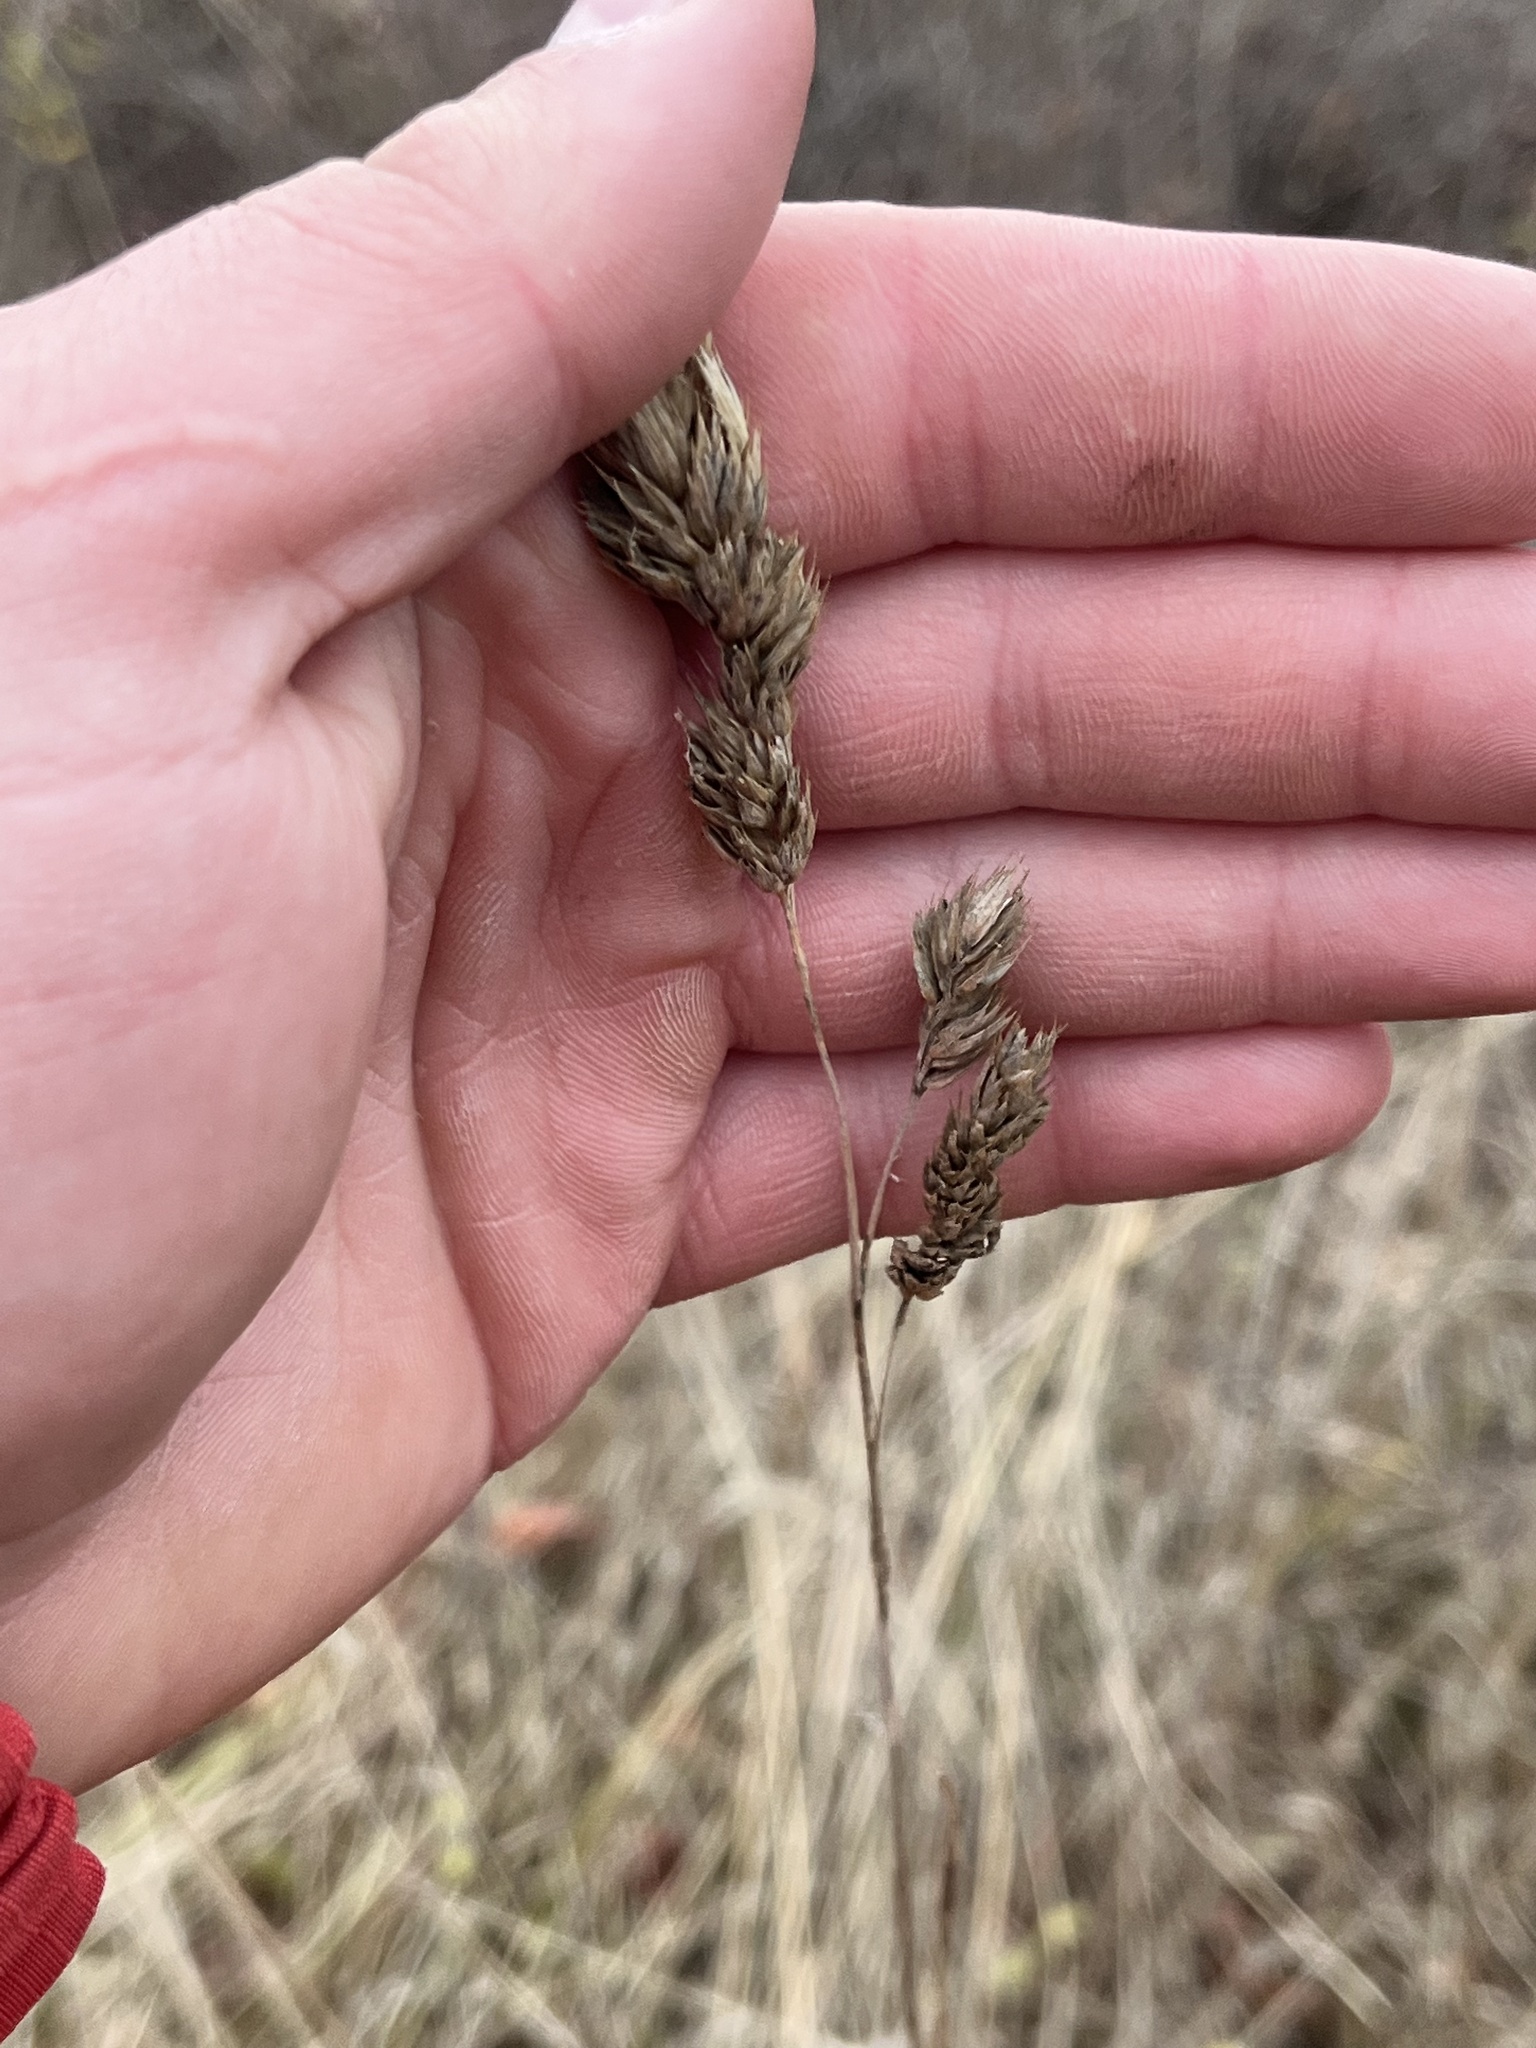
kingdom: Plantae
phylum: Tracheophyta
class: Liliopsida
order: Poales
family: Poaceae
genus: Dactylis
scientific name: Dactylis glomerata
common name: Orchardgrass
